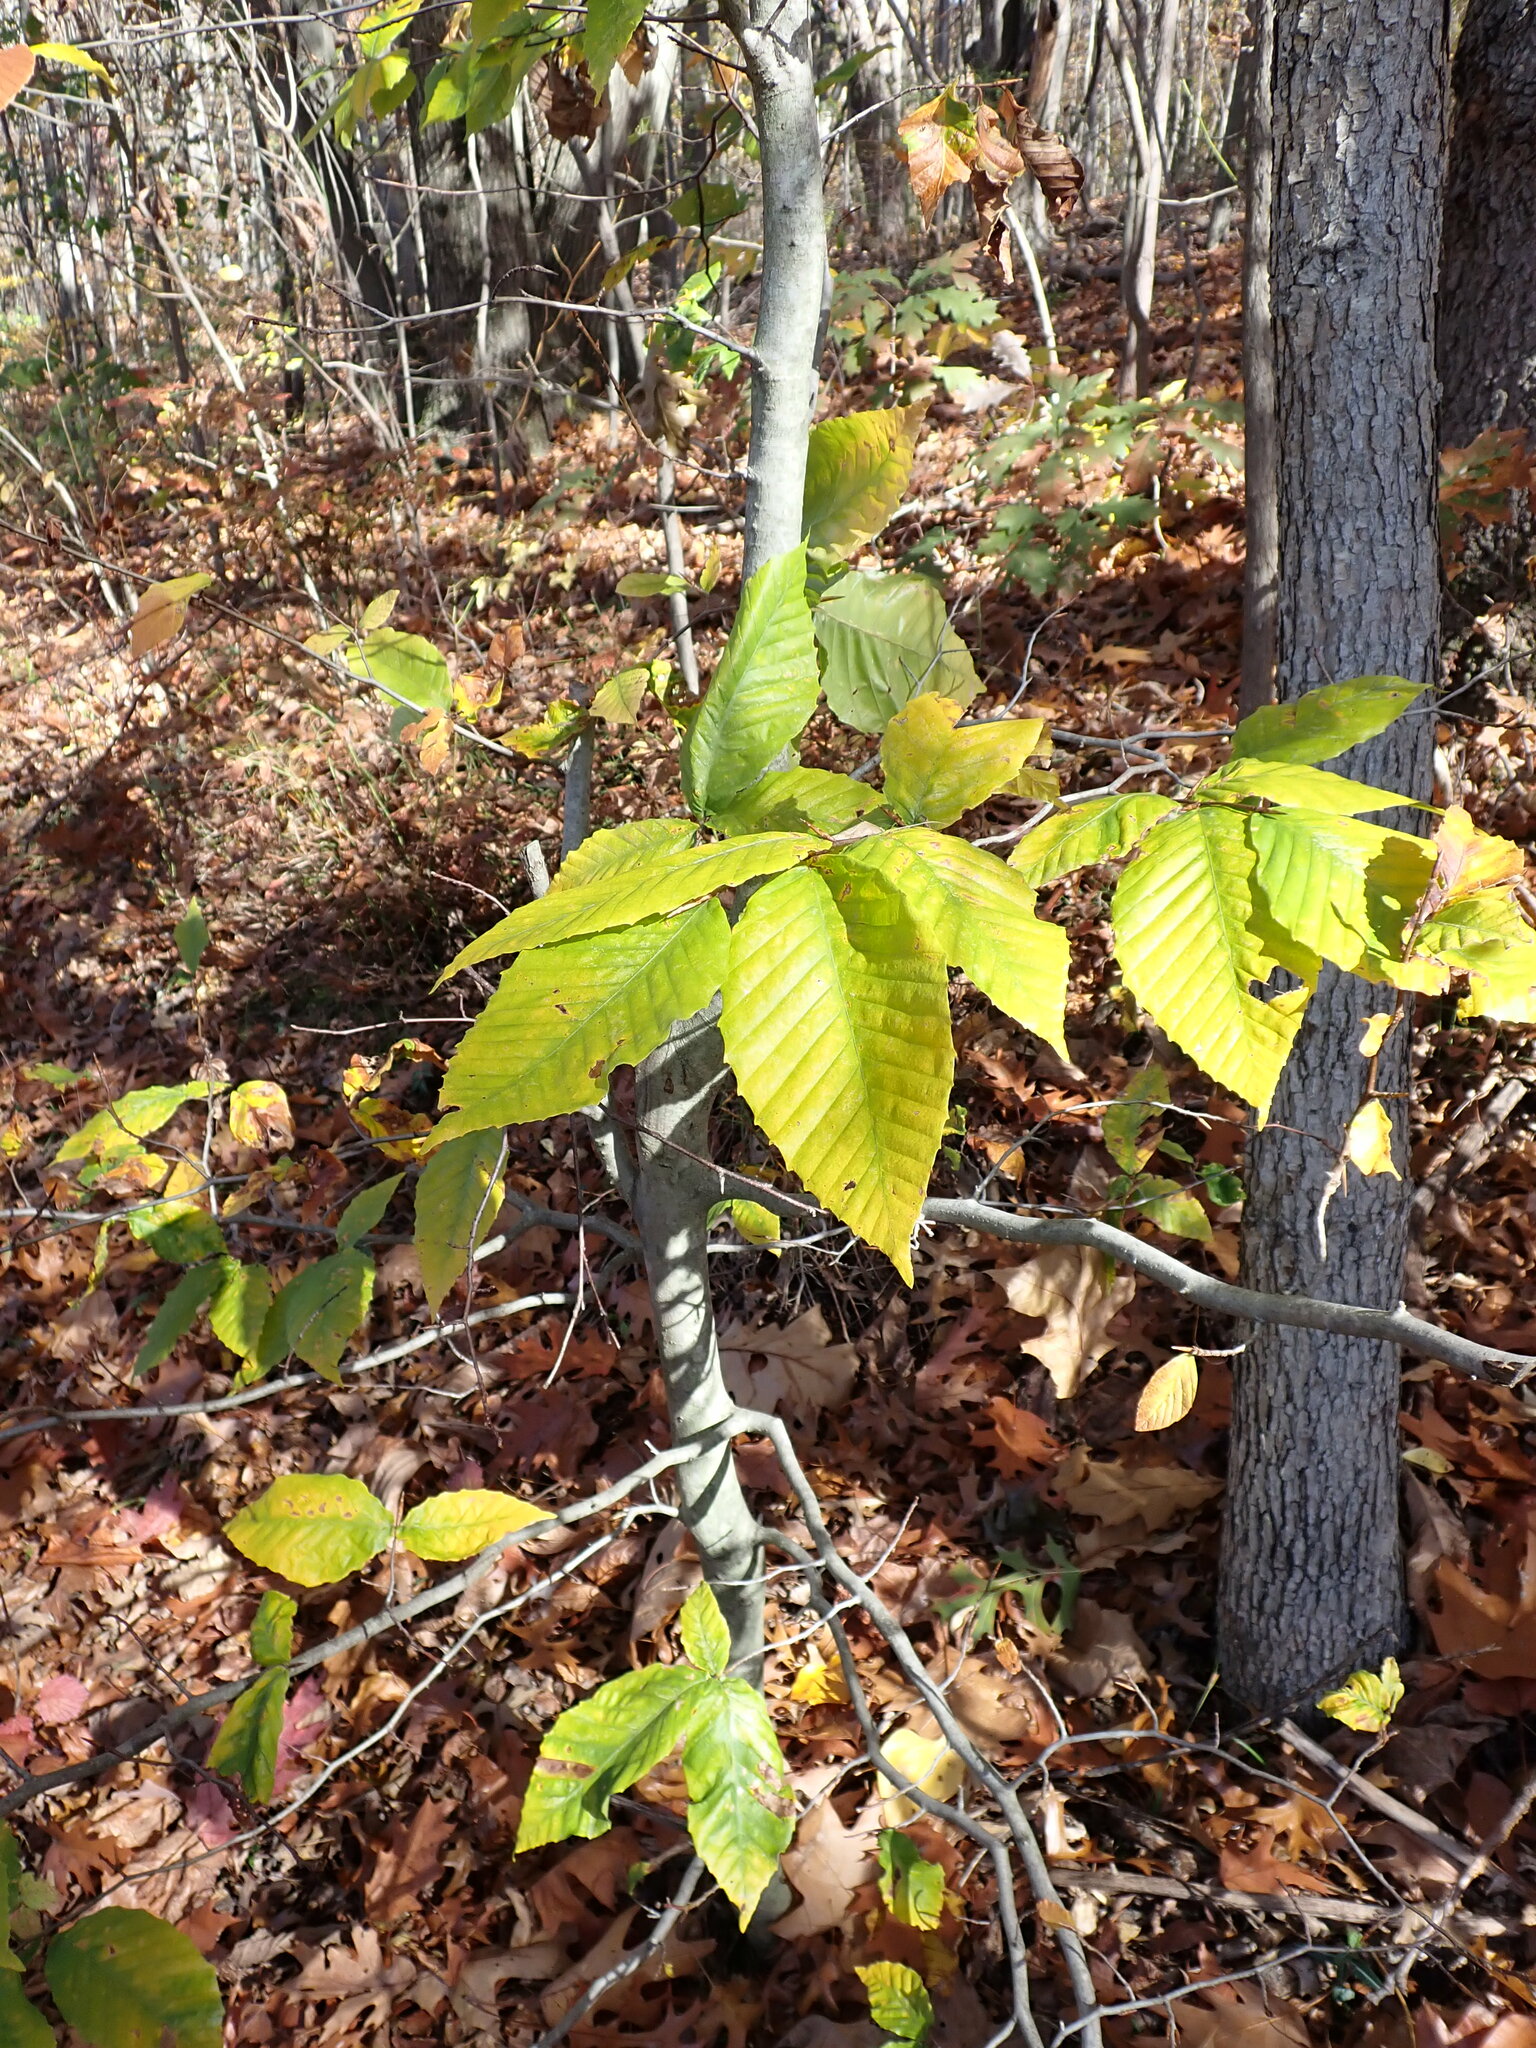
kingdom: Plantae
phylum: Tracheophyta
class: Magnoliopsida
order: Fagales
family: Fagaceae
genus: Fagus
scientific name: Fagus grandifolia
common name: American beech
